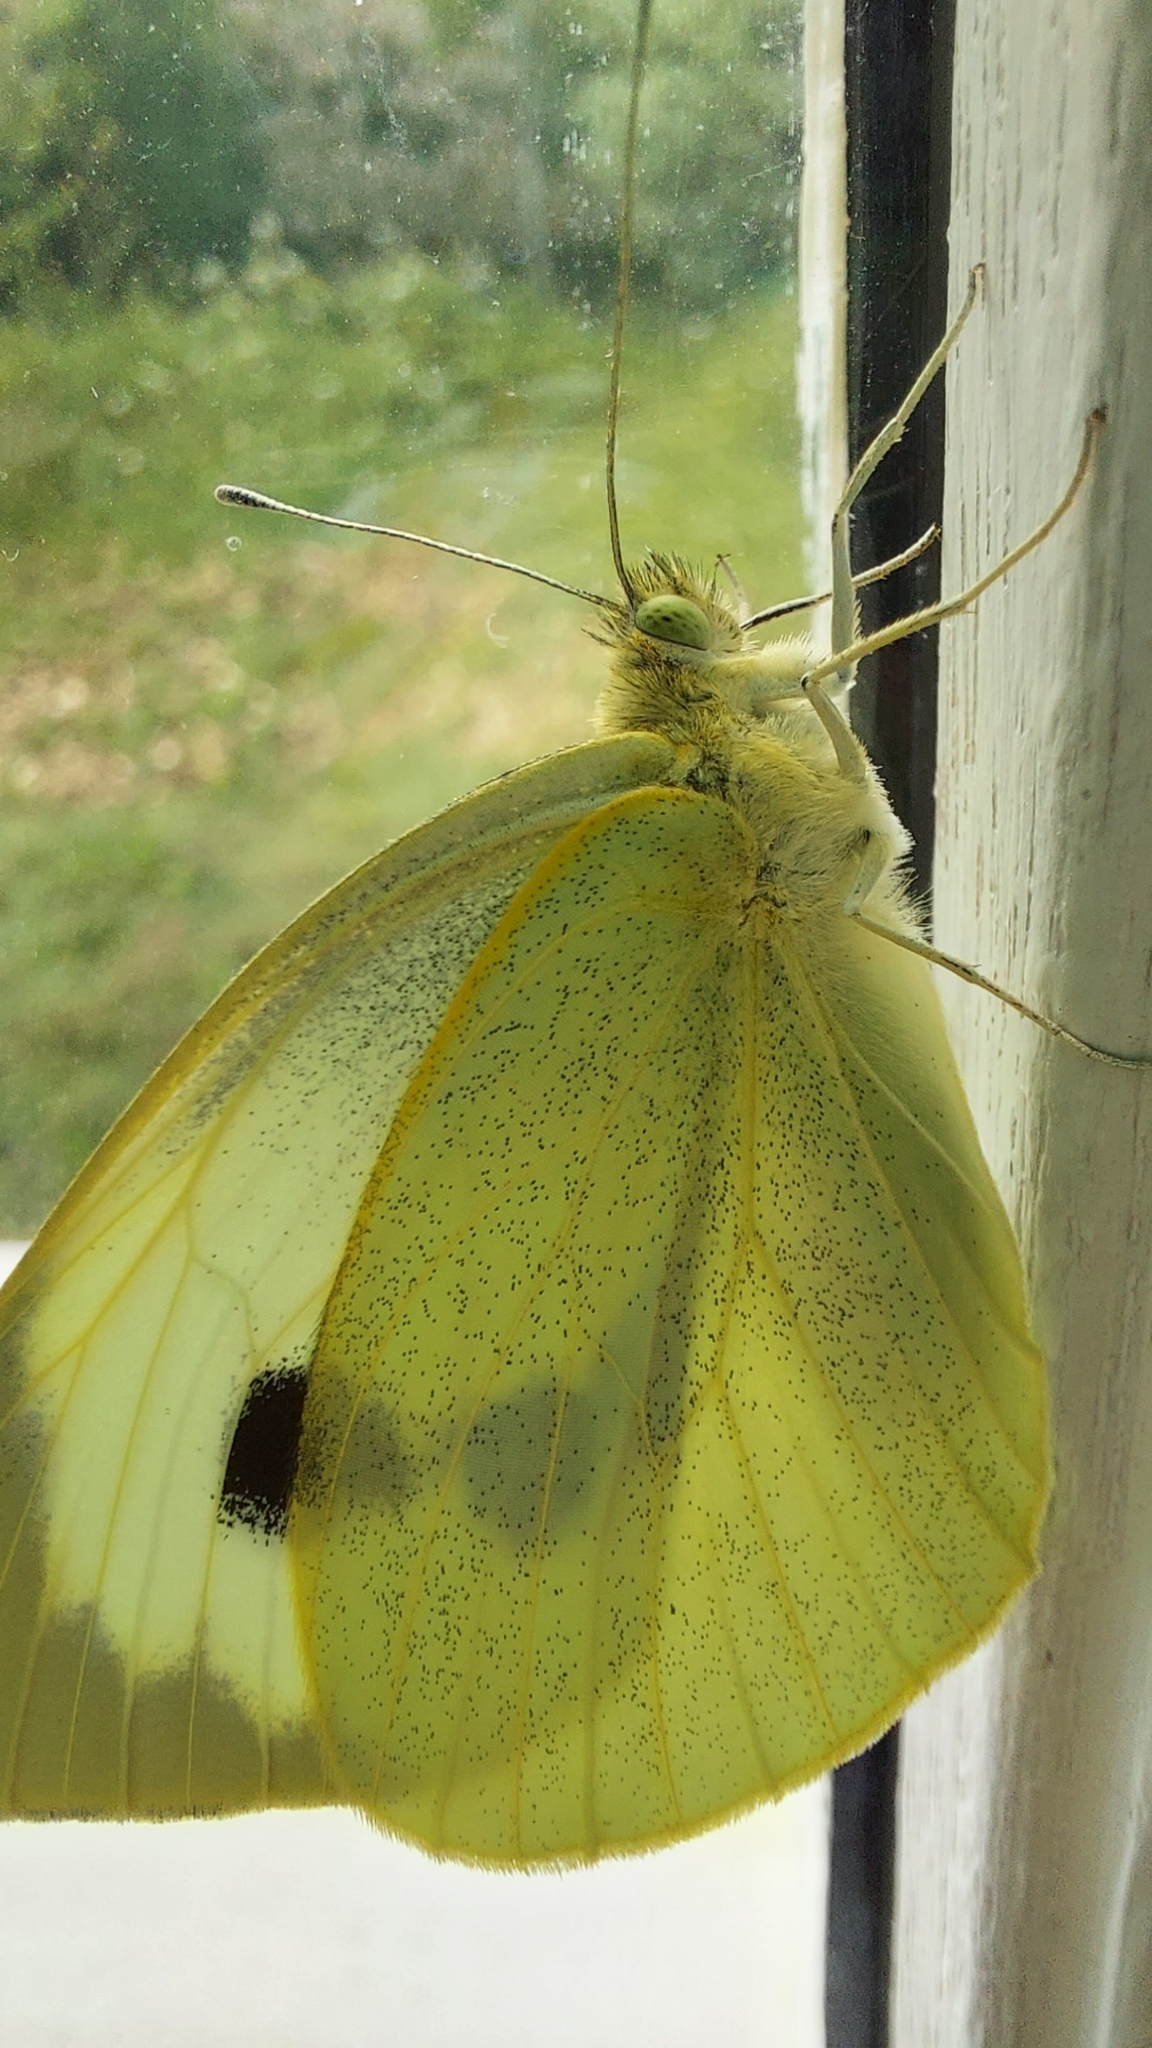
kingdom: Animalia
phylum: Arthropoda
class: Insecta
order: Lepidoptera
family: Pieridae
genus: Pieris
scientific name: Pieris brassicae
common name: Large white
